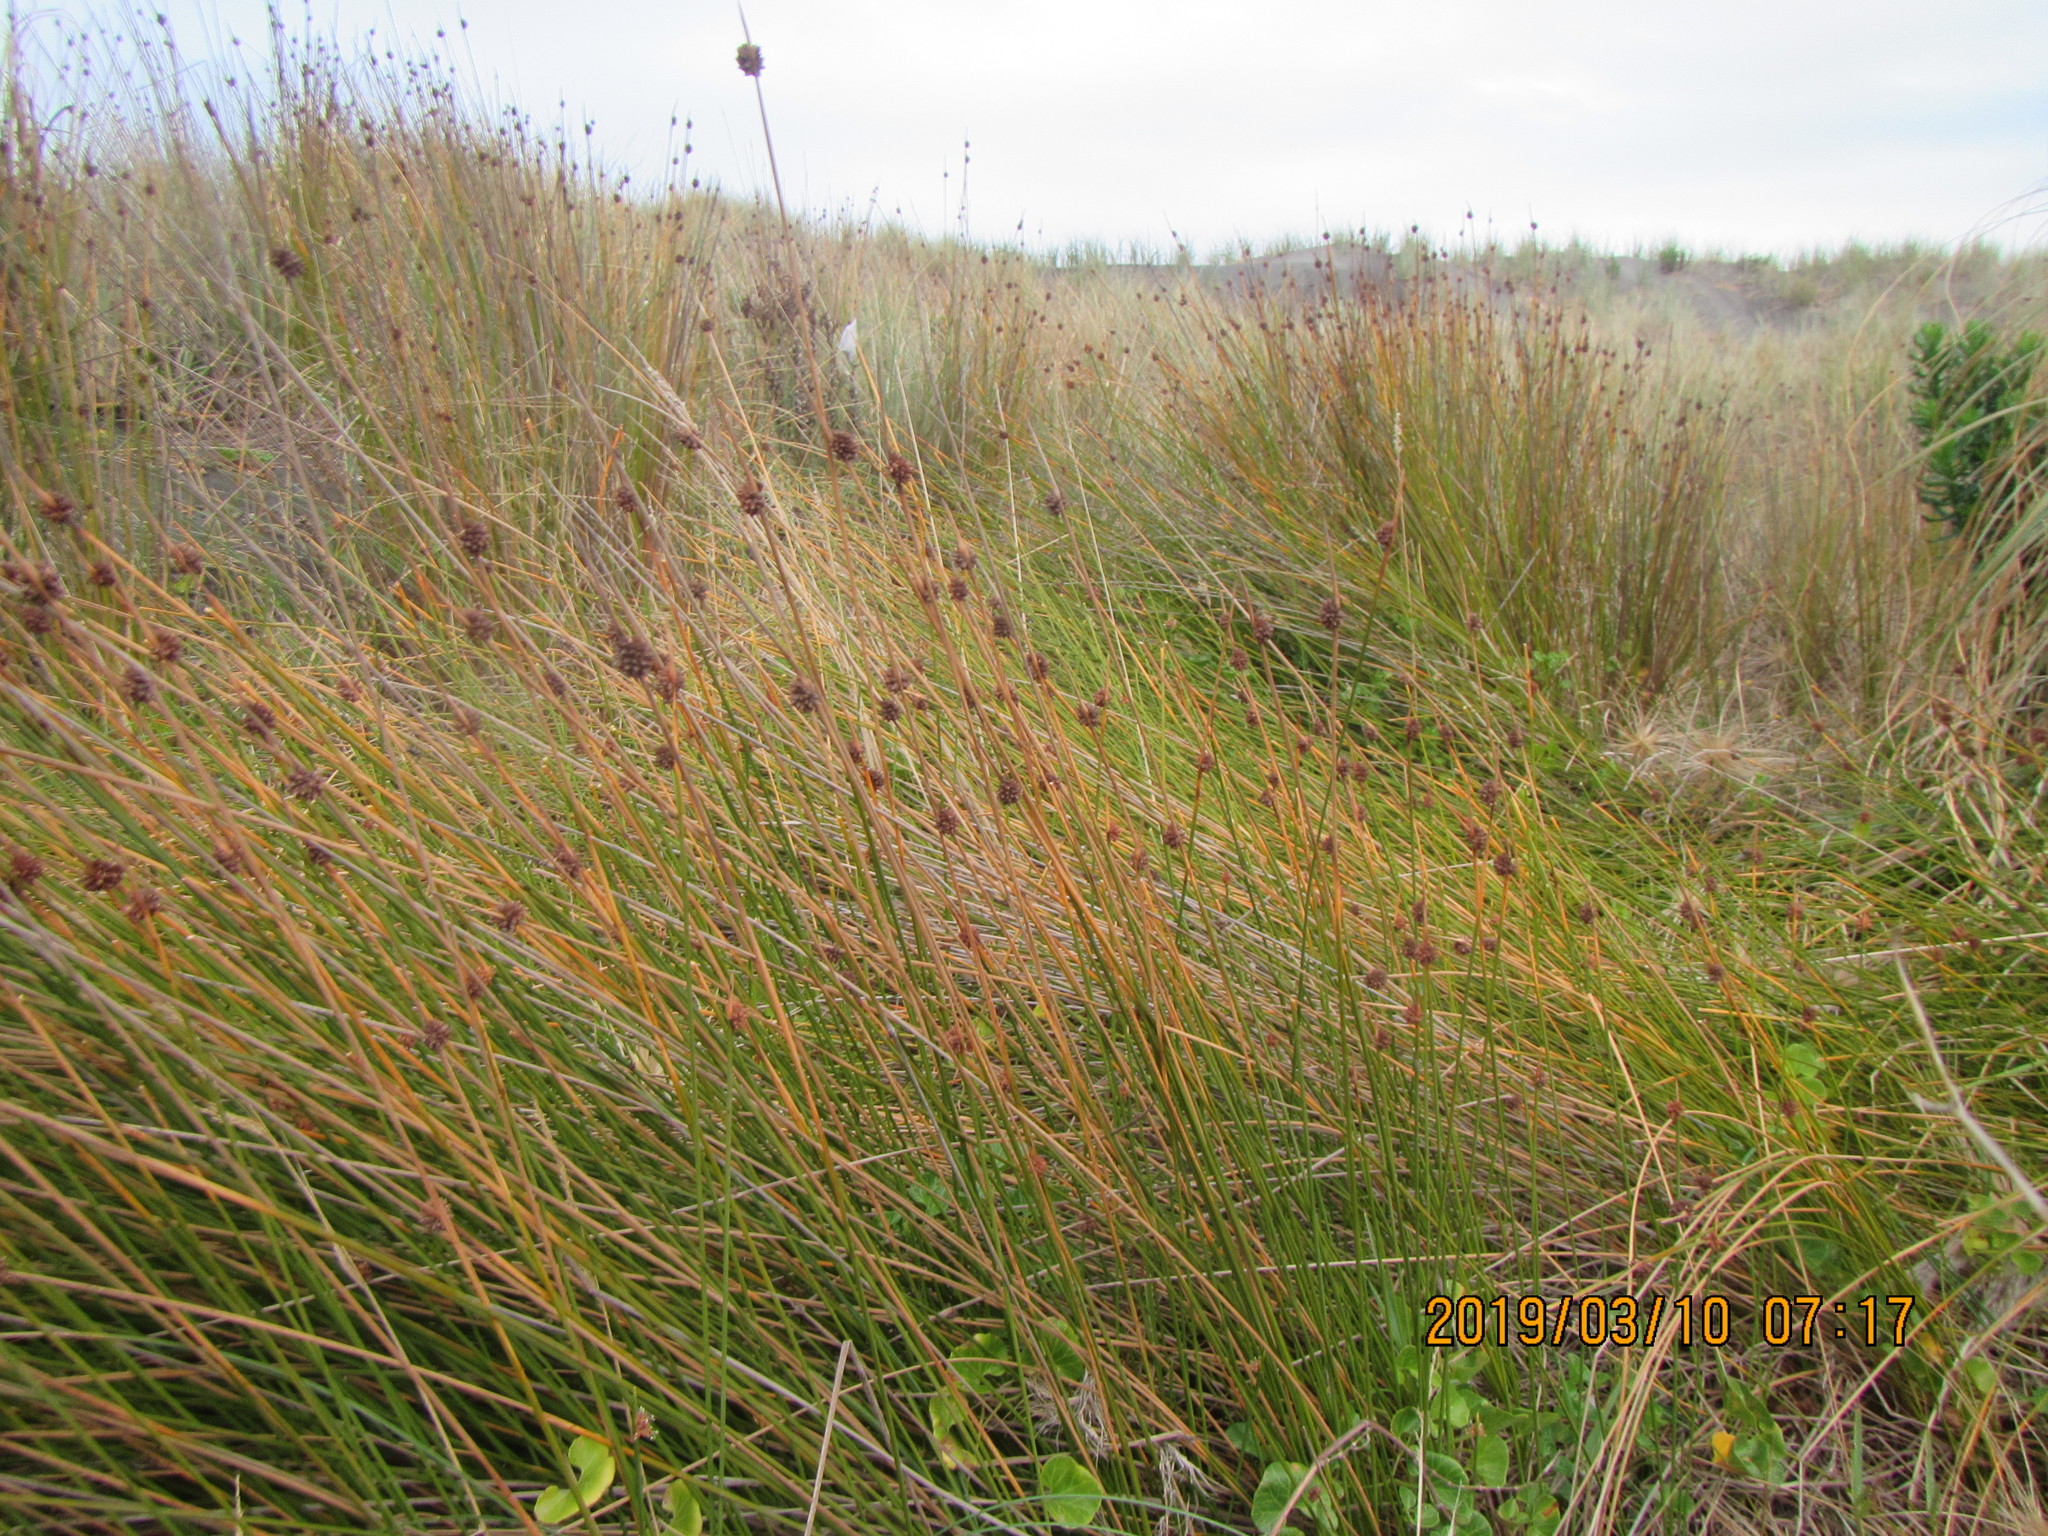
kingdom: Plantae
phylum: Tracheophyta
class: Liliopsida
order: Poales
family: Cyperaceae
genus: Ficinia
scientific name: Ficinia nodosa
